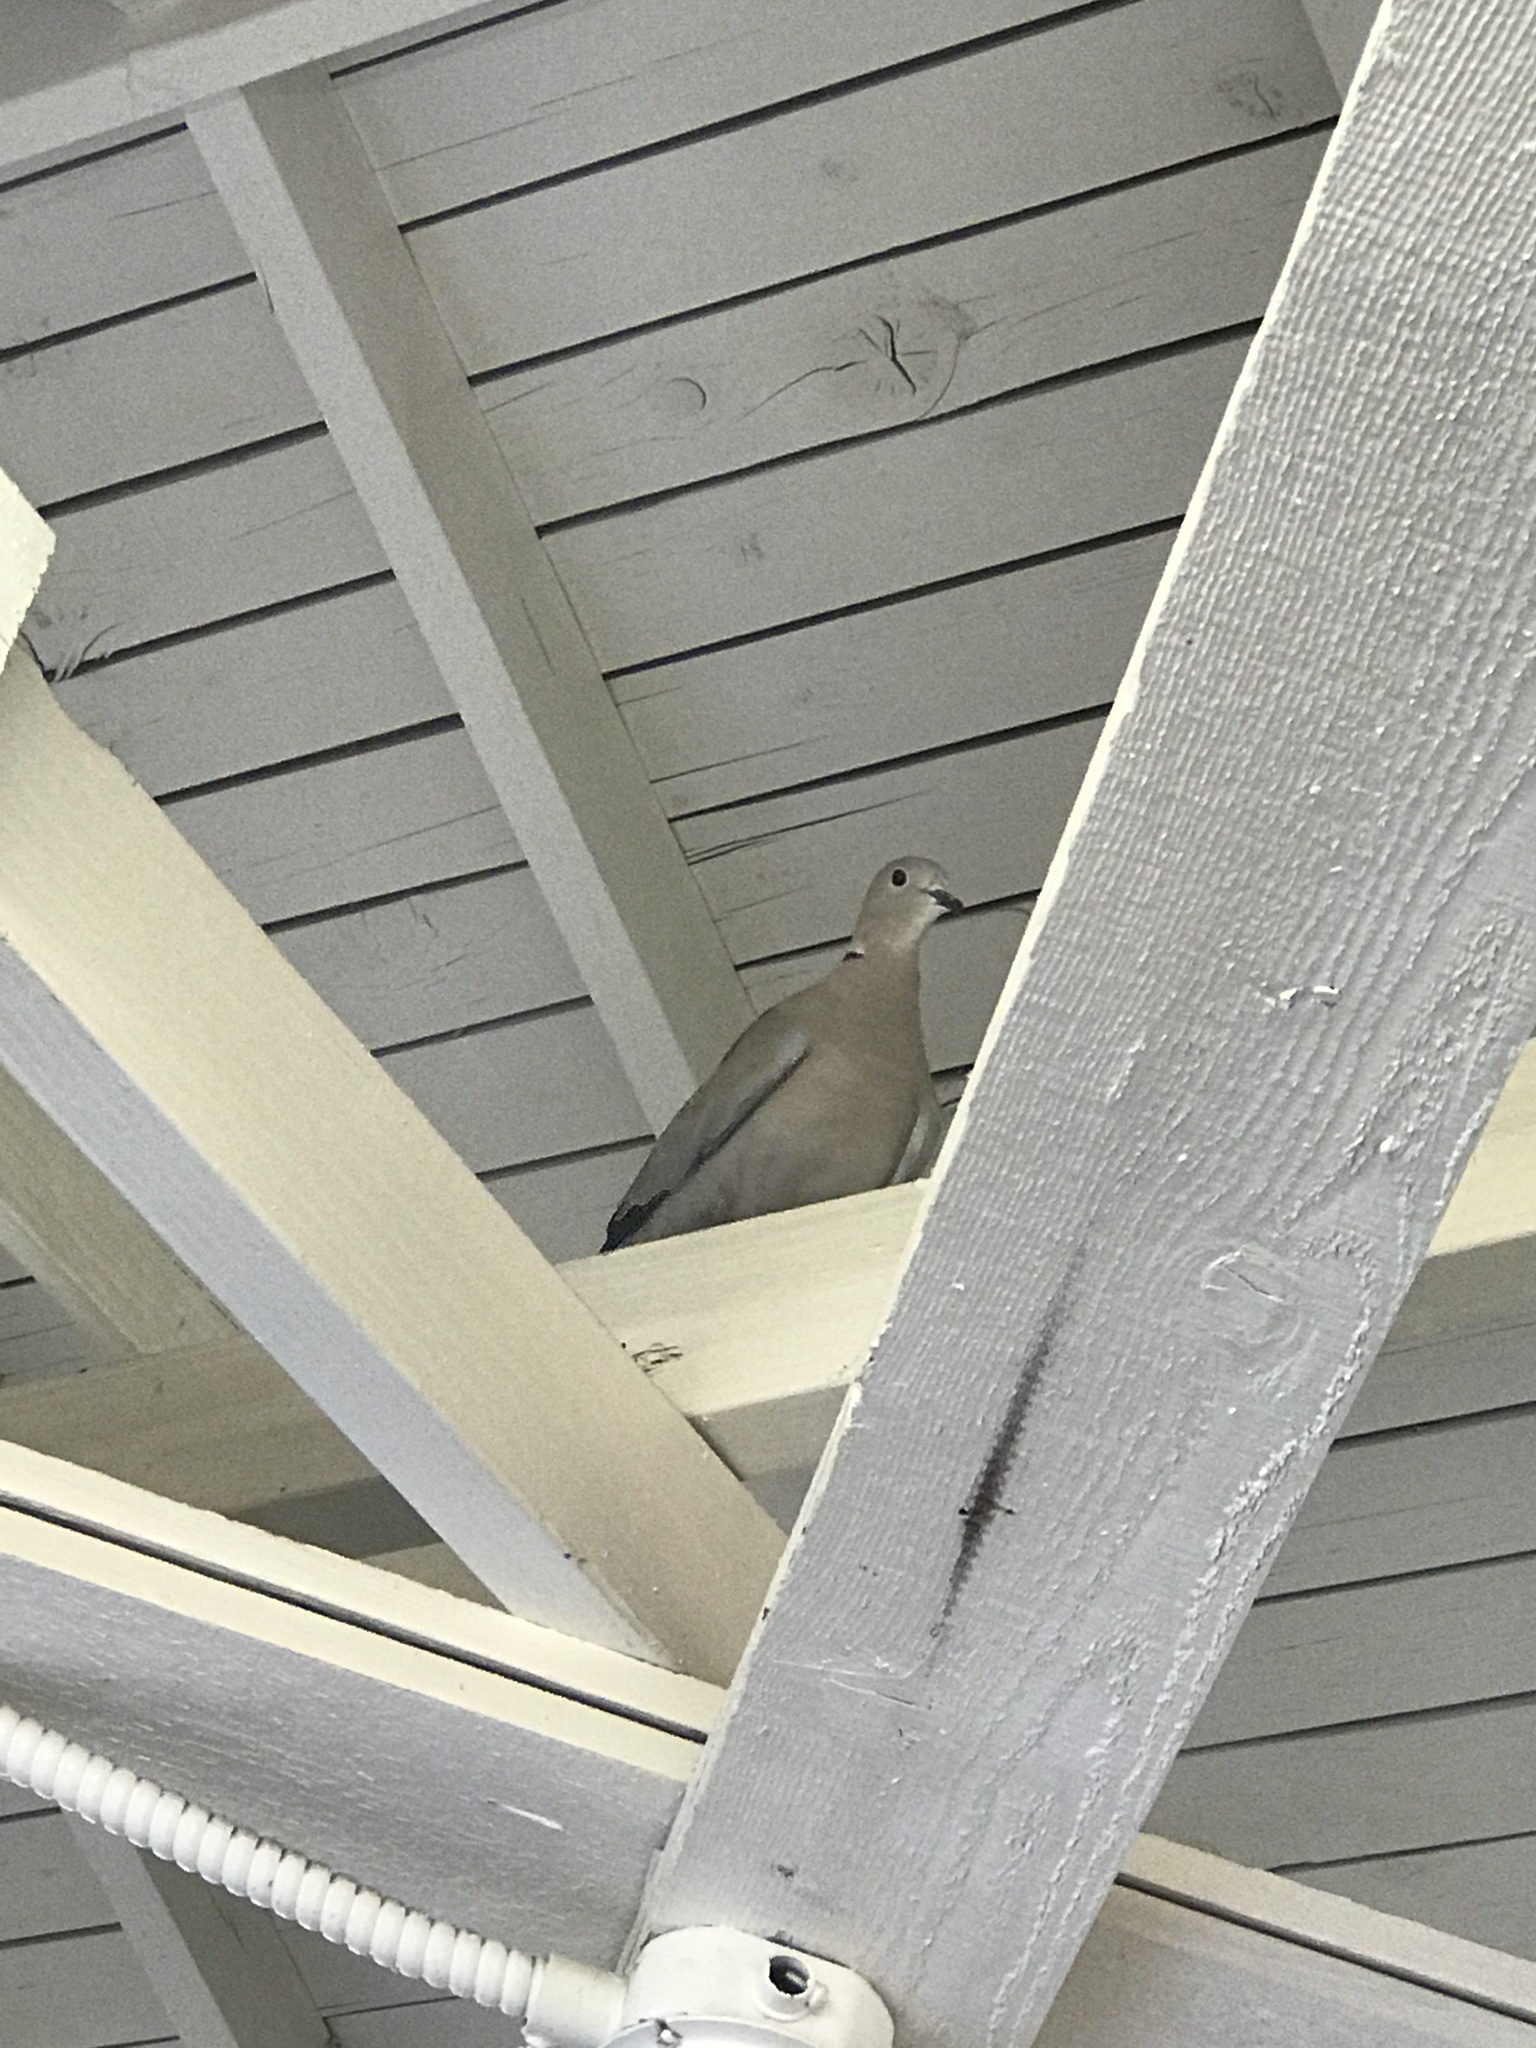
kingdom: Animalia
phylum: Chordata
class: Aves
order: Columbiformes
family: Columbidae
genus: Streptopelia
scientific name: Streptopelia decaocto
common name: Eurasian collared dove
